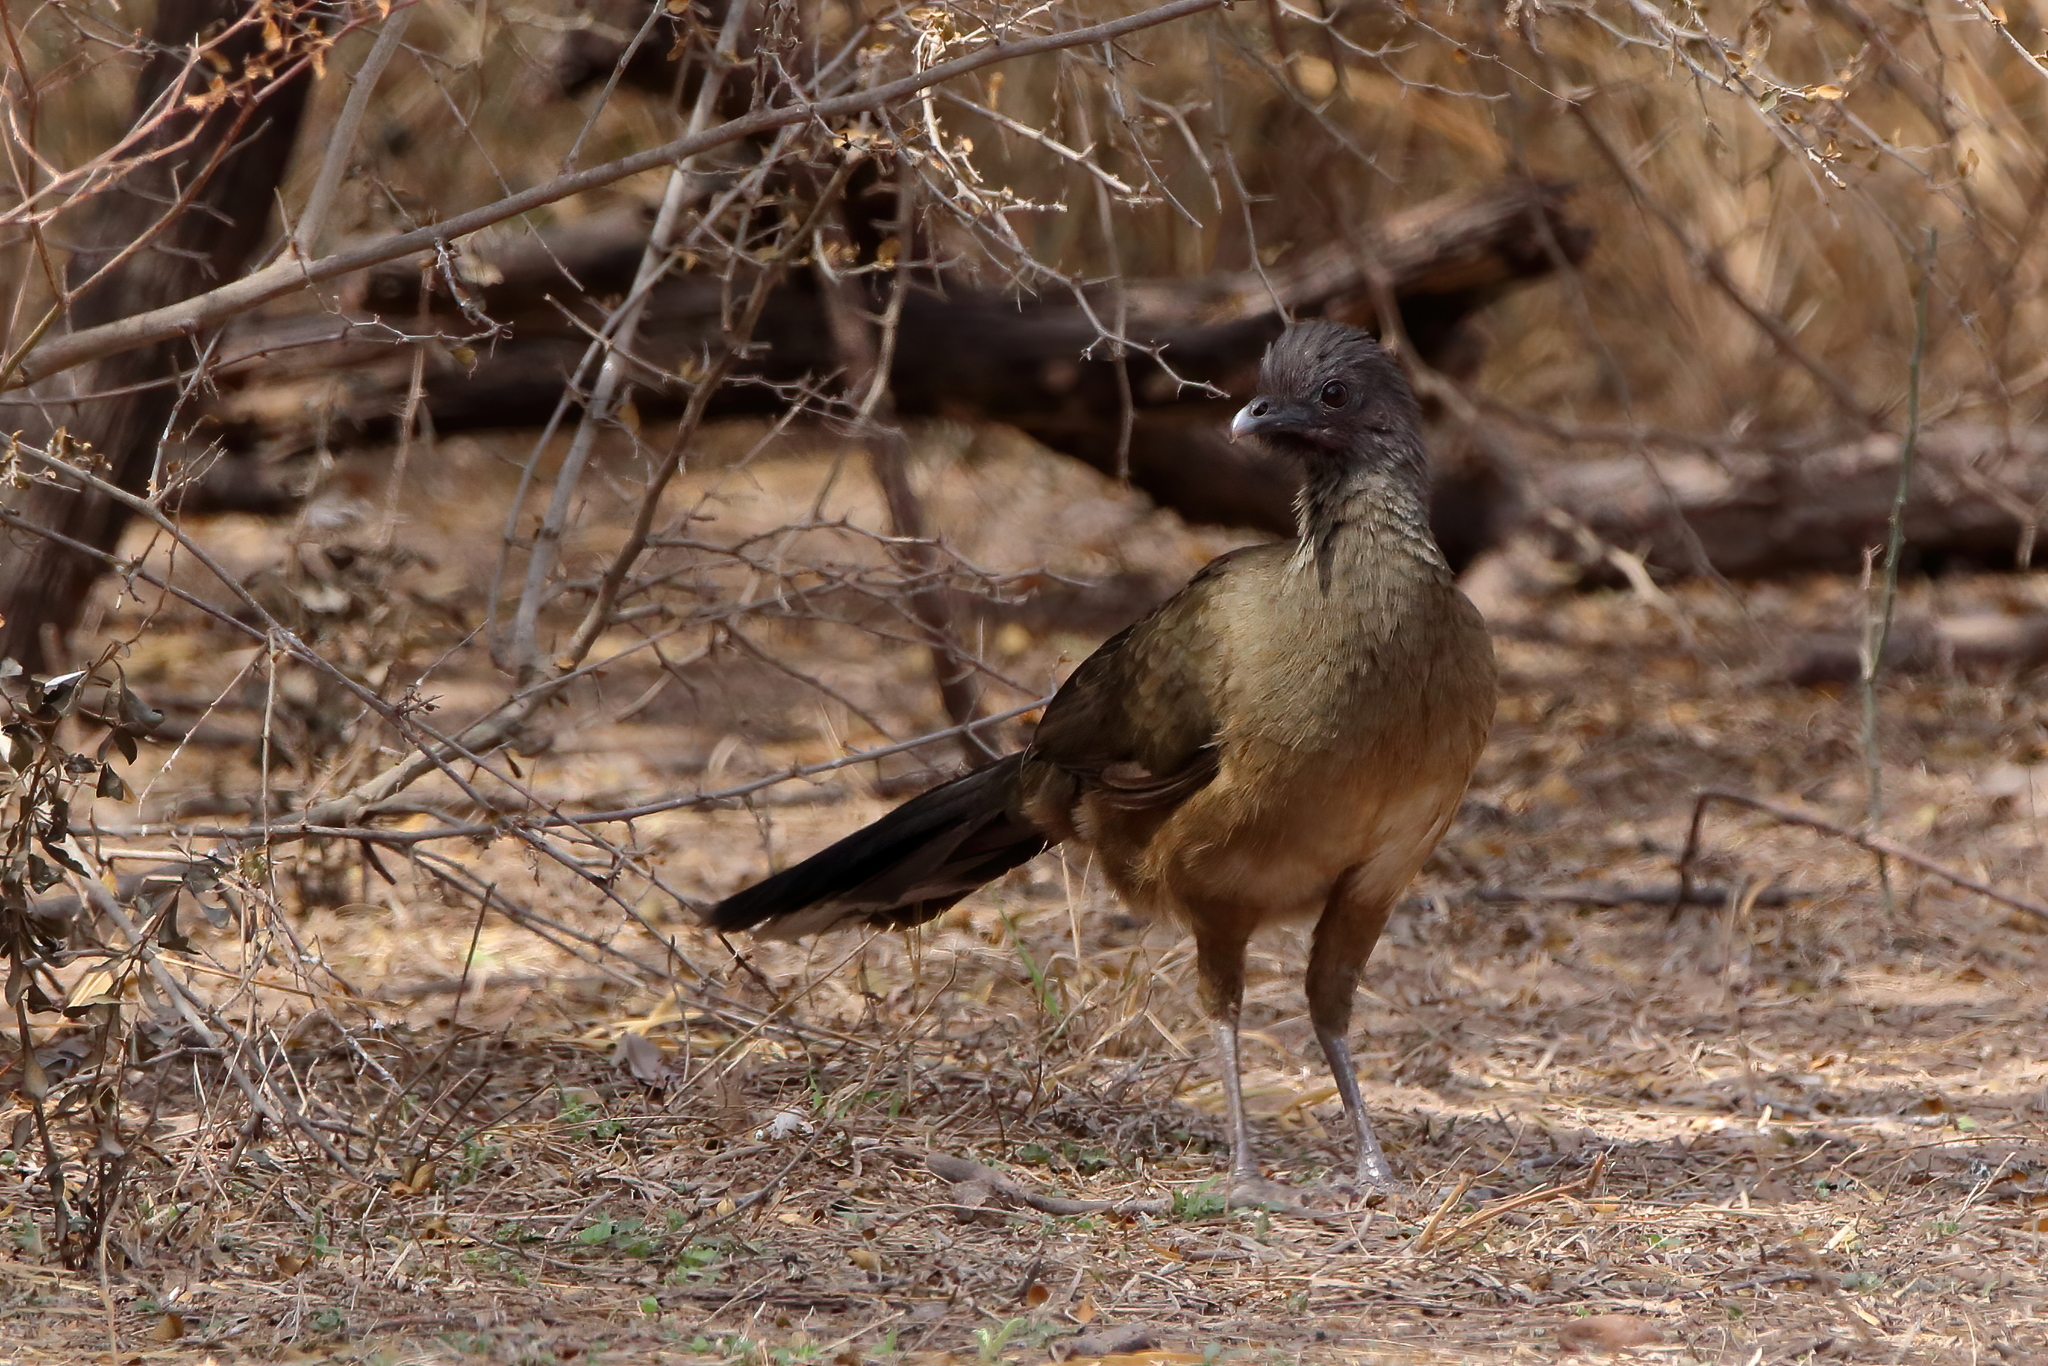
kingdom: Animalia
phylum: Chordata
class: Aves
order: Galliformes
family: Cracidae
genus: Ortalis
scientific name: Ortalis vetula
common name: Plain chachalaca
